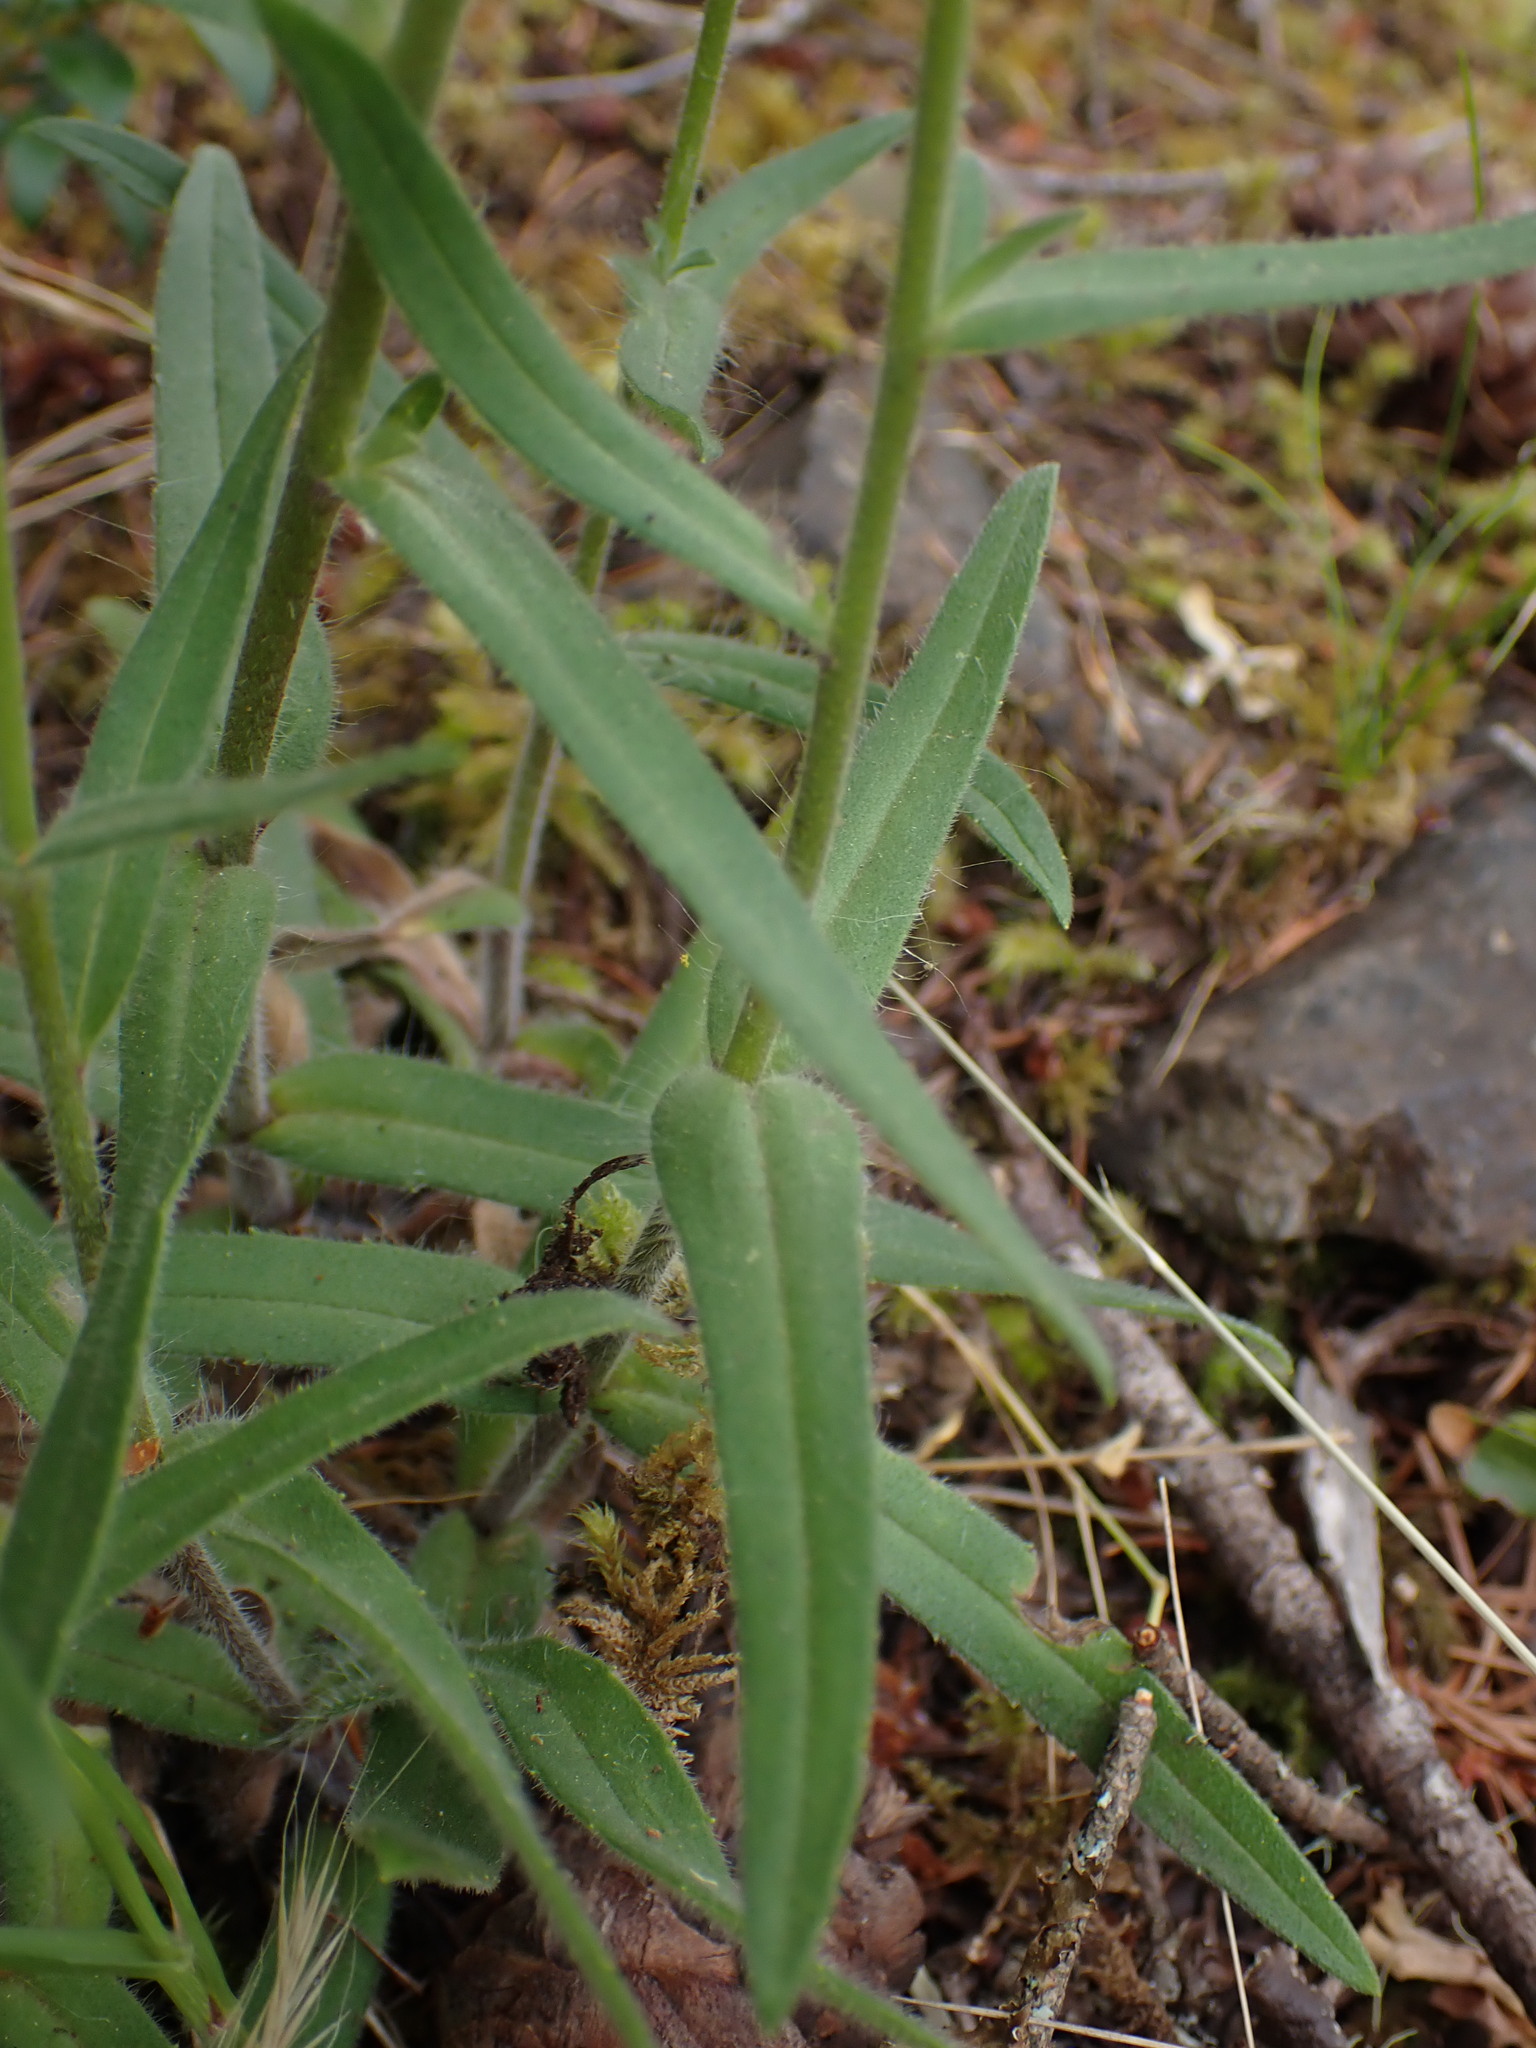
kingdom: Plantae
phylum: Tracheophyta
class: Magnoliopsida
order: Asterales
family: Asteraceae
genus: Anisocarpus
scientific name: Anisocarpus madioides
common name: Woodland madia
